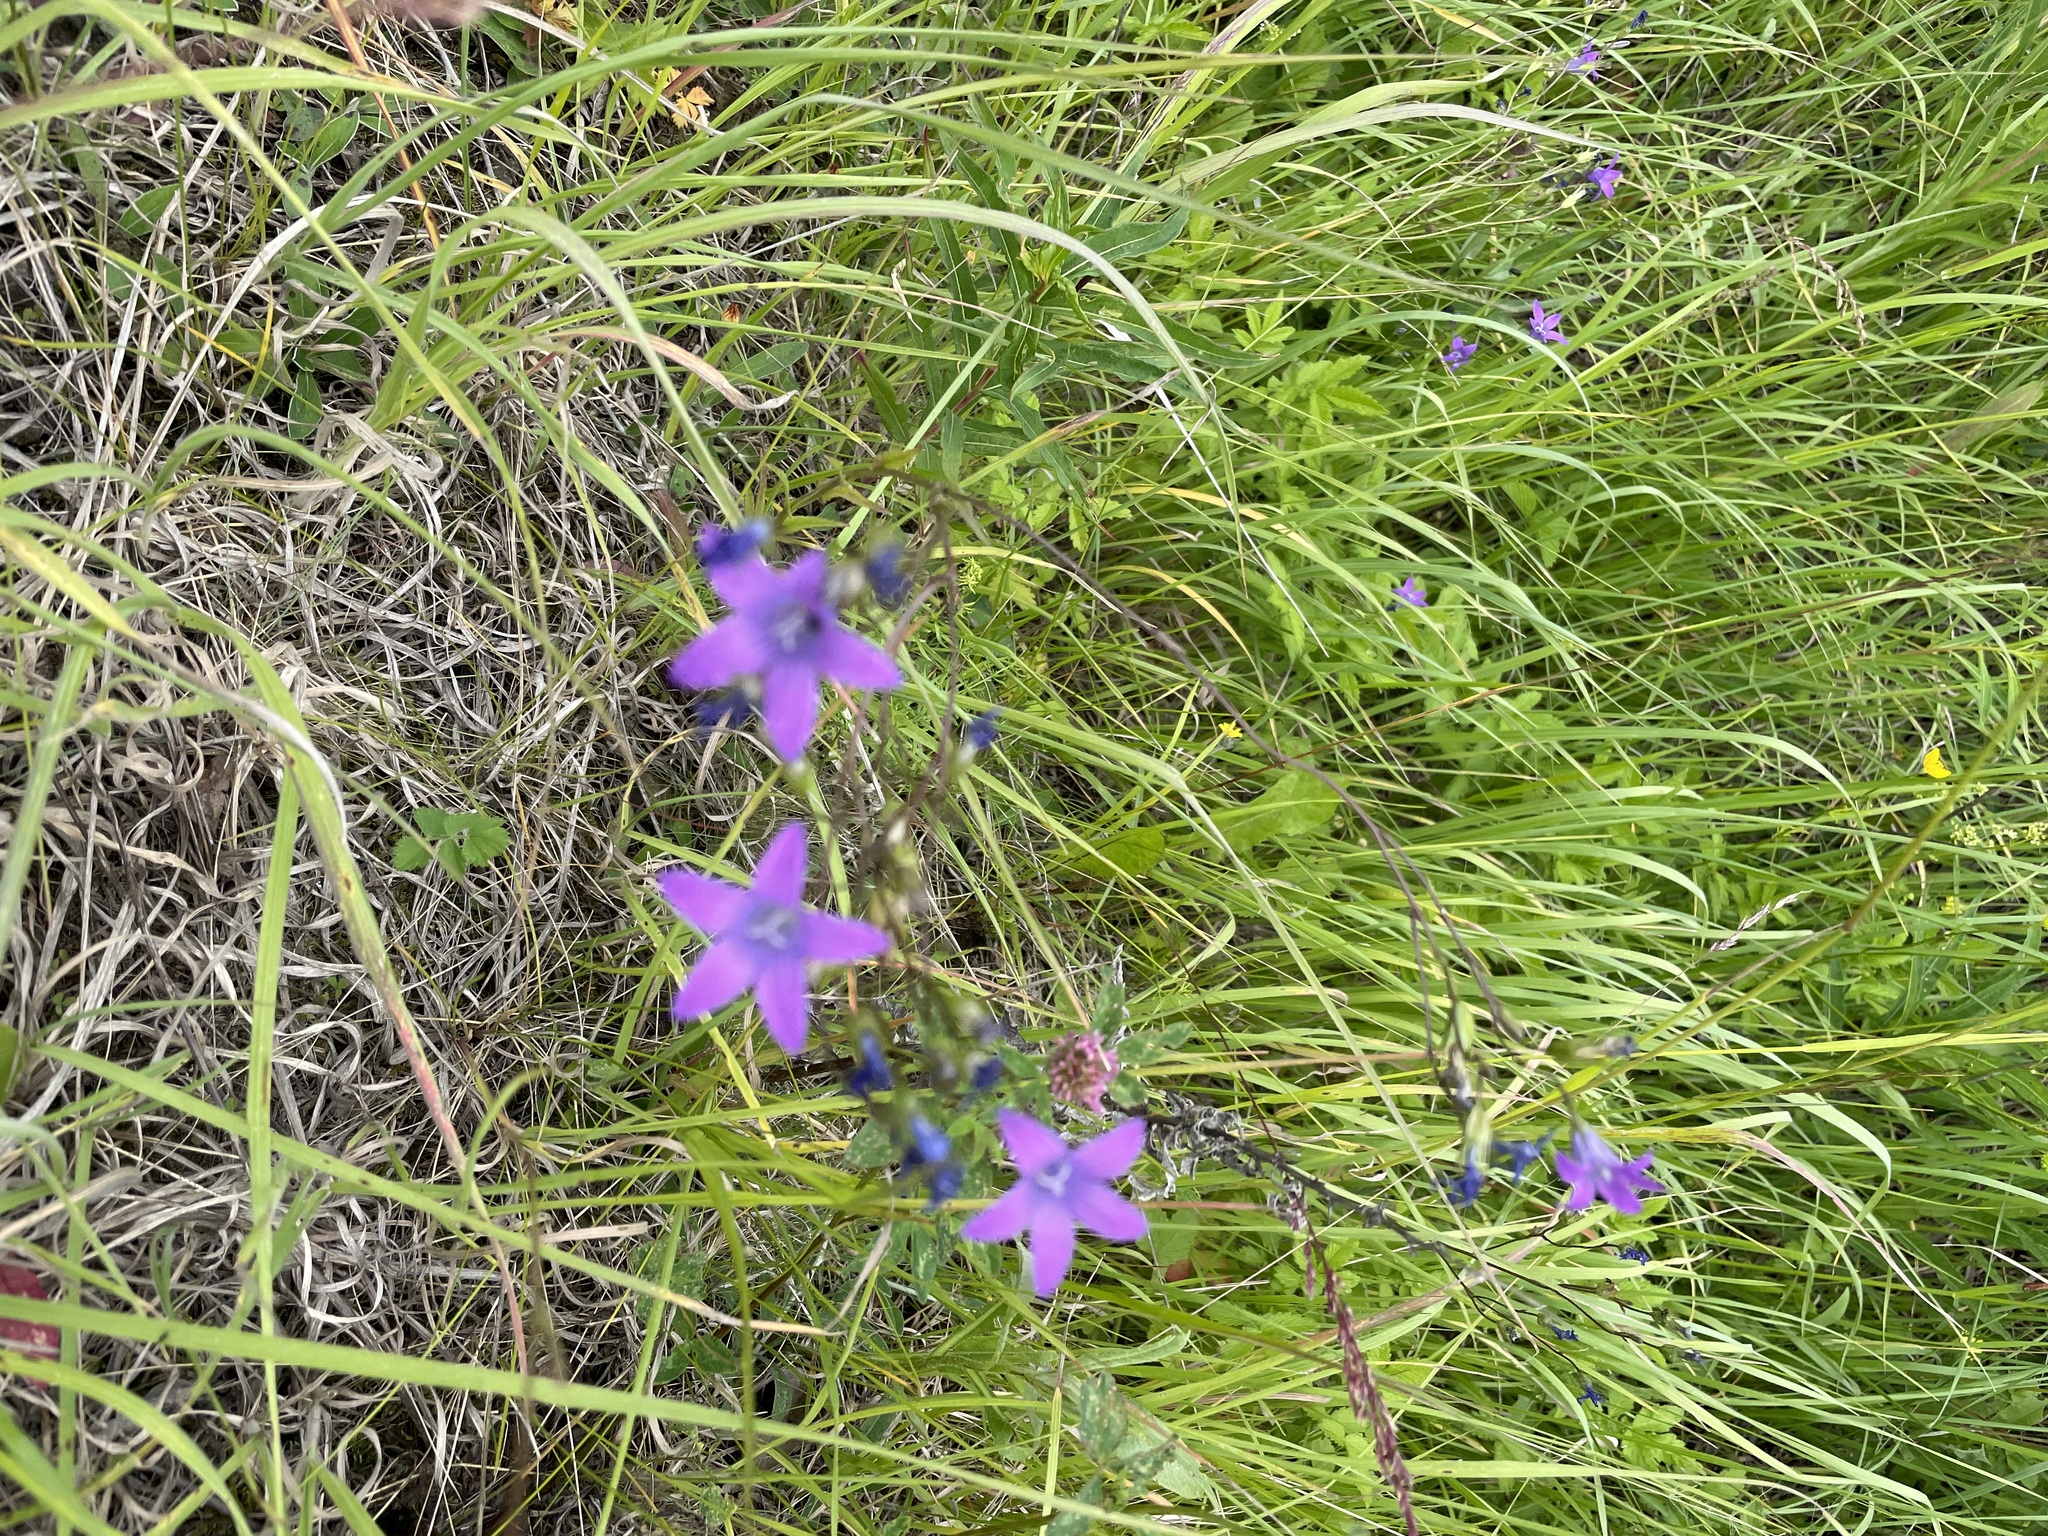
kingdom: Plantae
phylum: Tracheophyta
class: Magnoliopsida
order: Asterales
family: Campanulaceae
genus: Campanula
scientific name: Campanula patula
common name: Spreading bellflower
